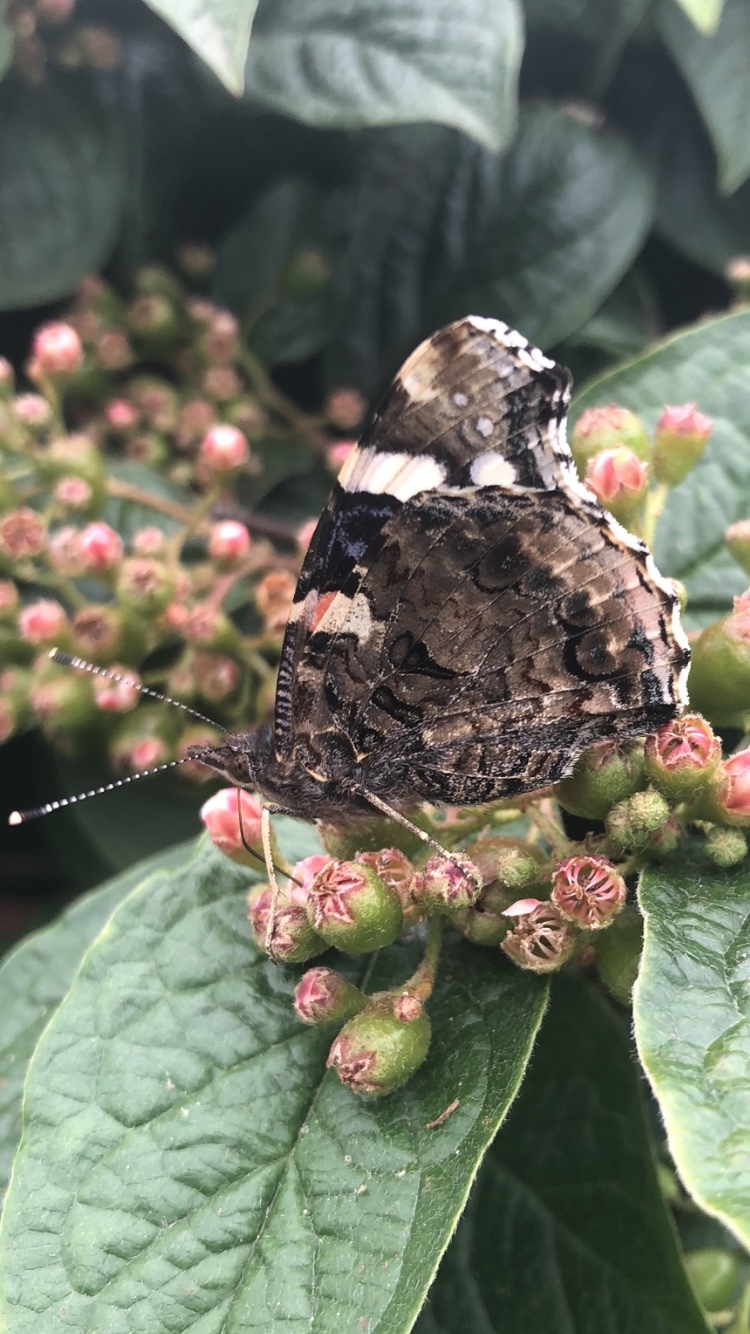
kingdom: Animalia
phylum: Arthropoda
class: Insecta
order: Lepidoptera
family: Nymphalidae
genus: Vanessa
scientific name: Vanessa atalanta
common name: Red admiral
